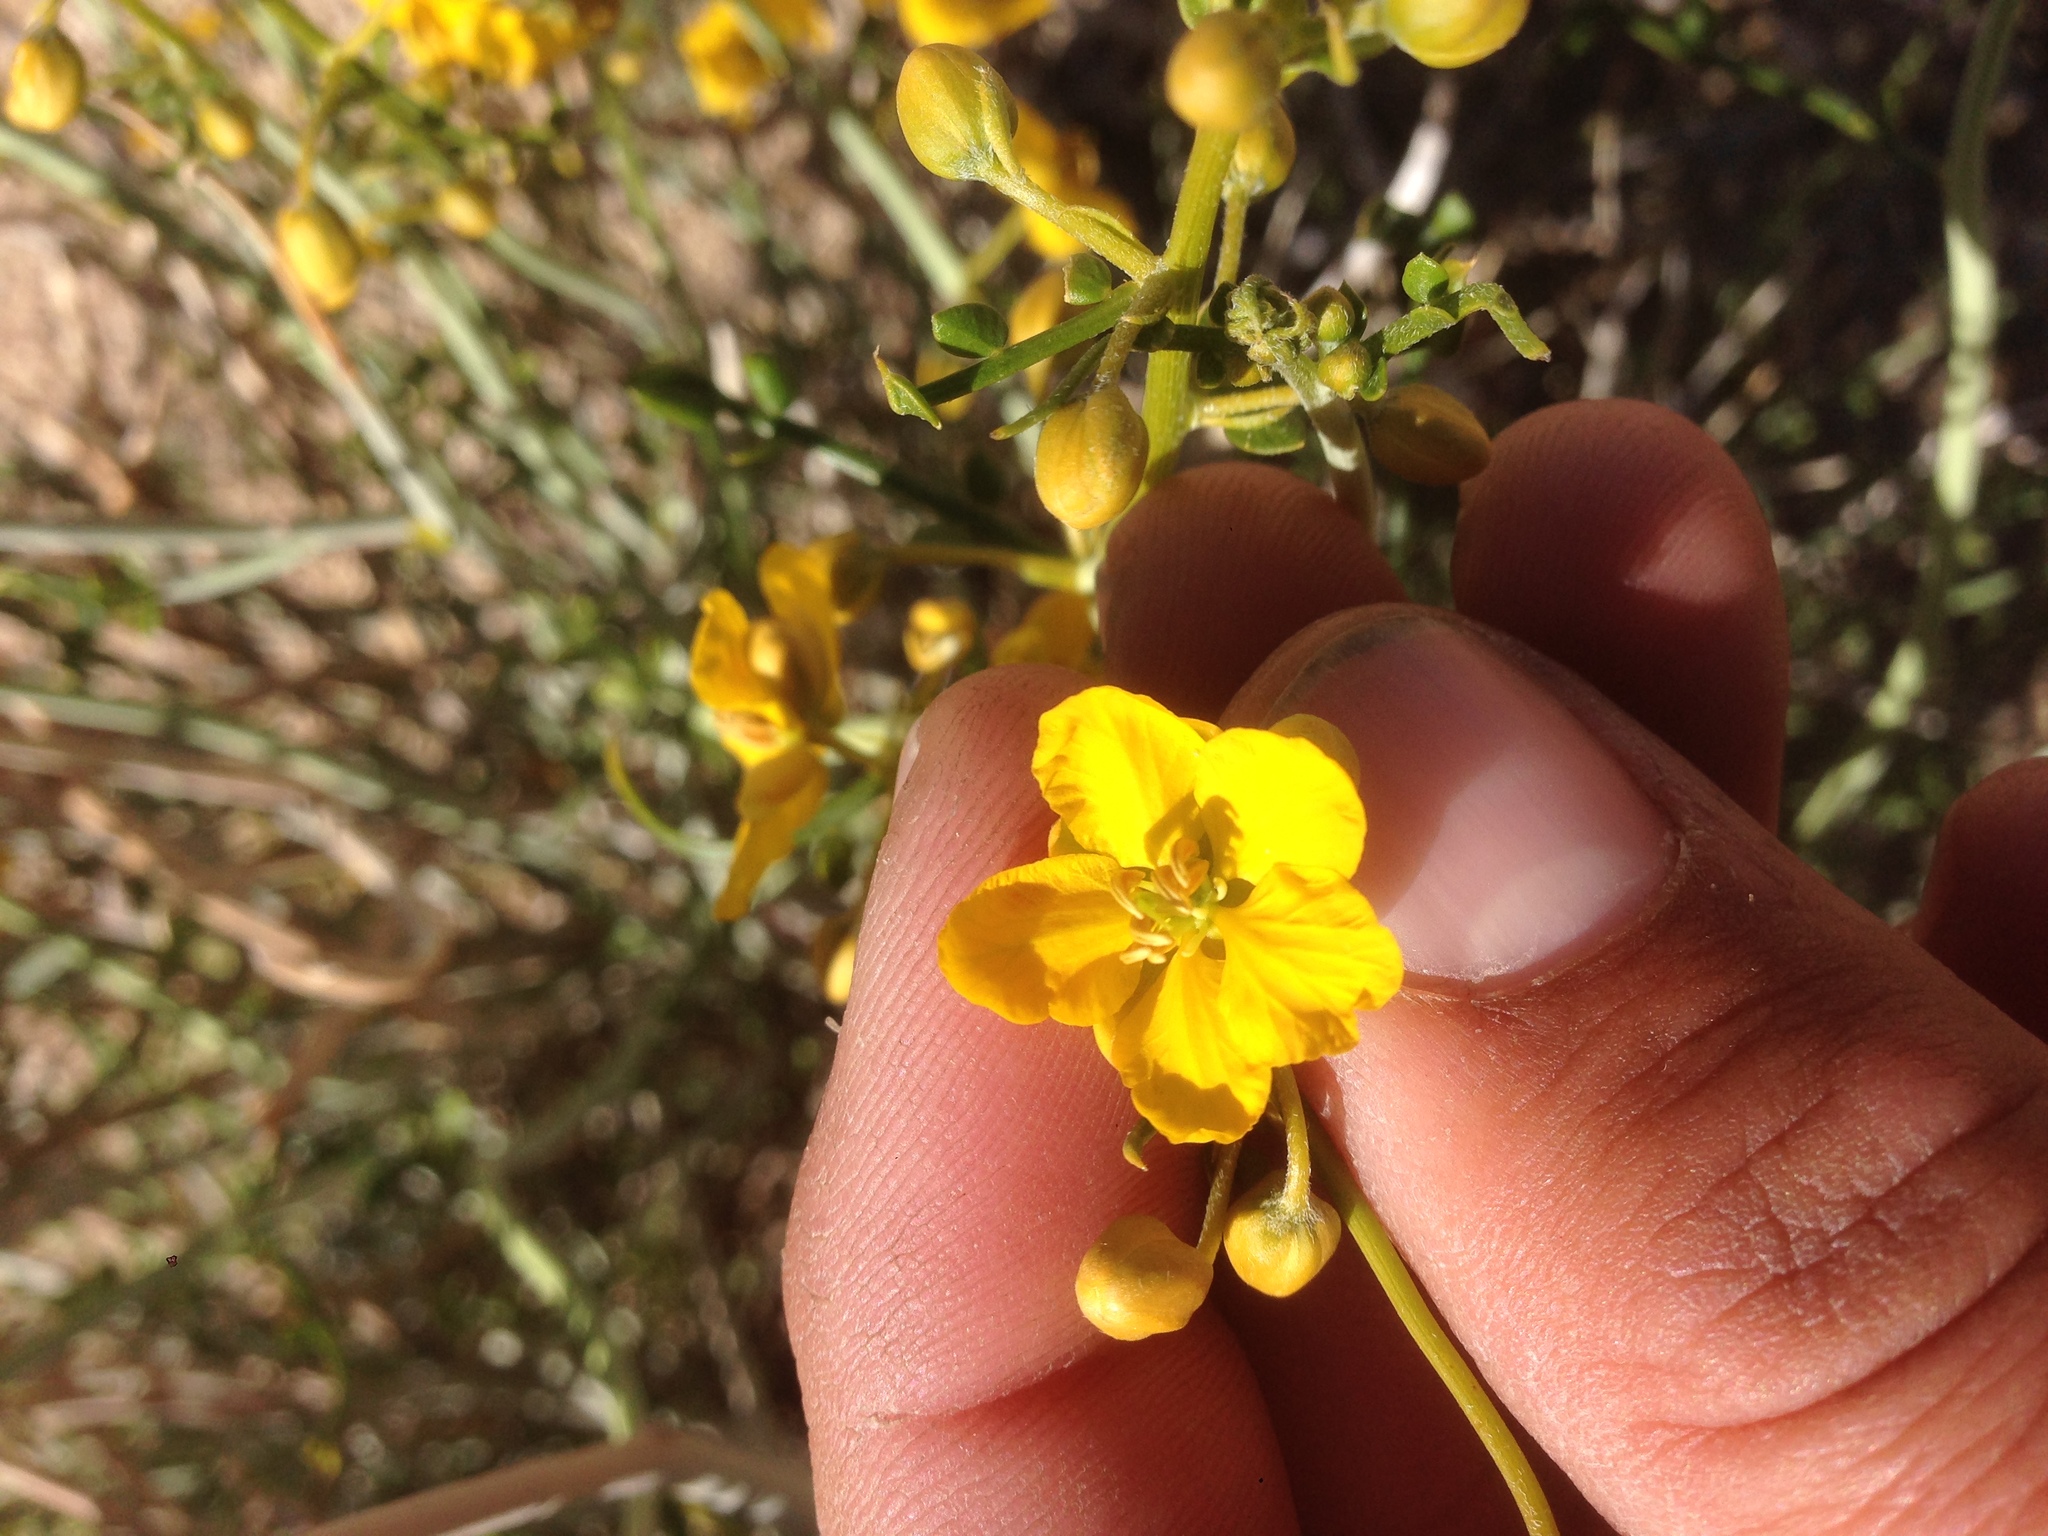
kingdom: Plantae
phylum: Tracheophyta
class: Magnoliopsida
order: Fabales
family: Fabaceae
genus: Senna
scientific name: Senna armata
